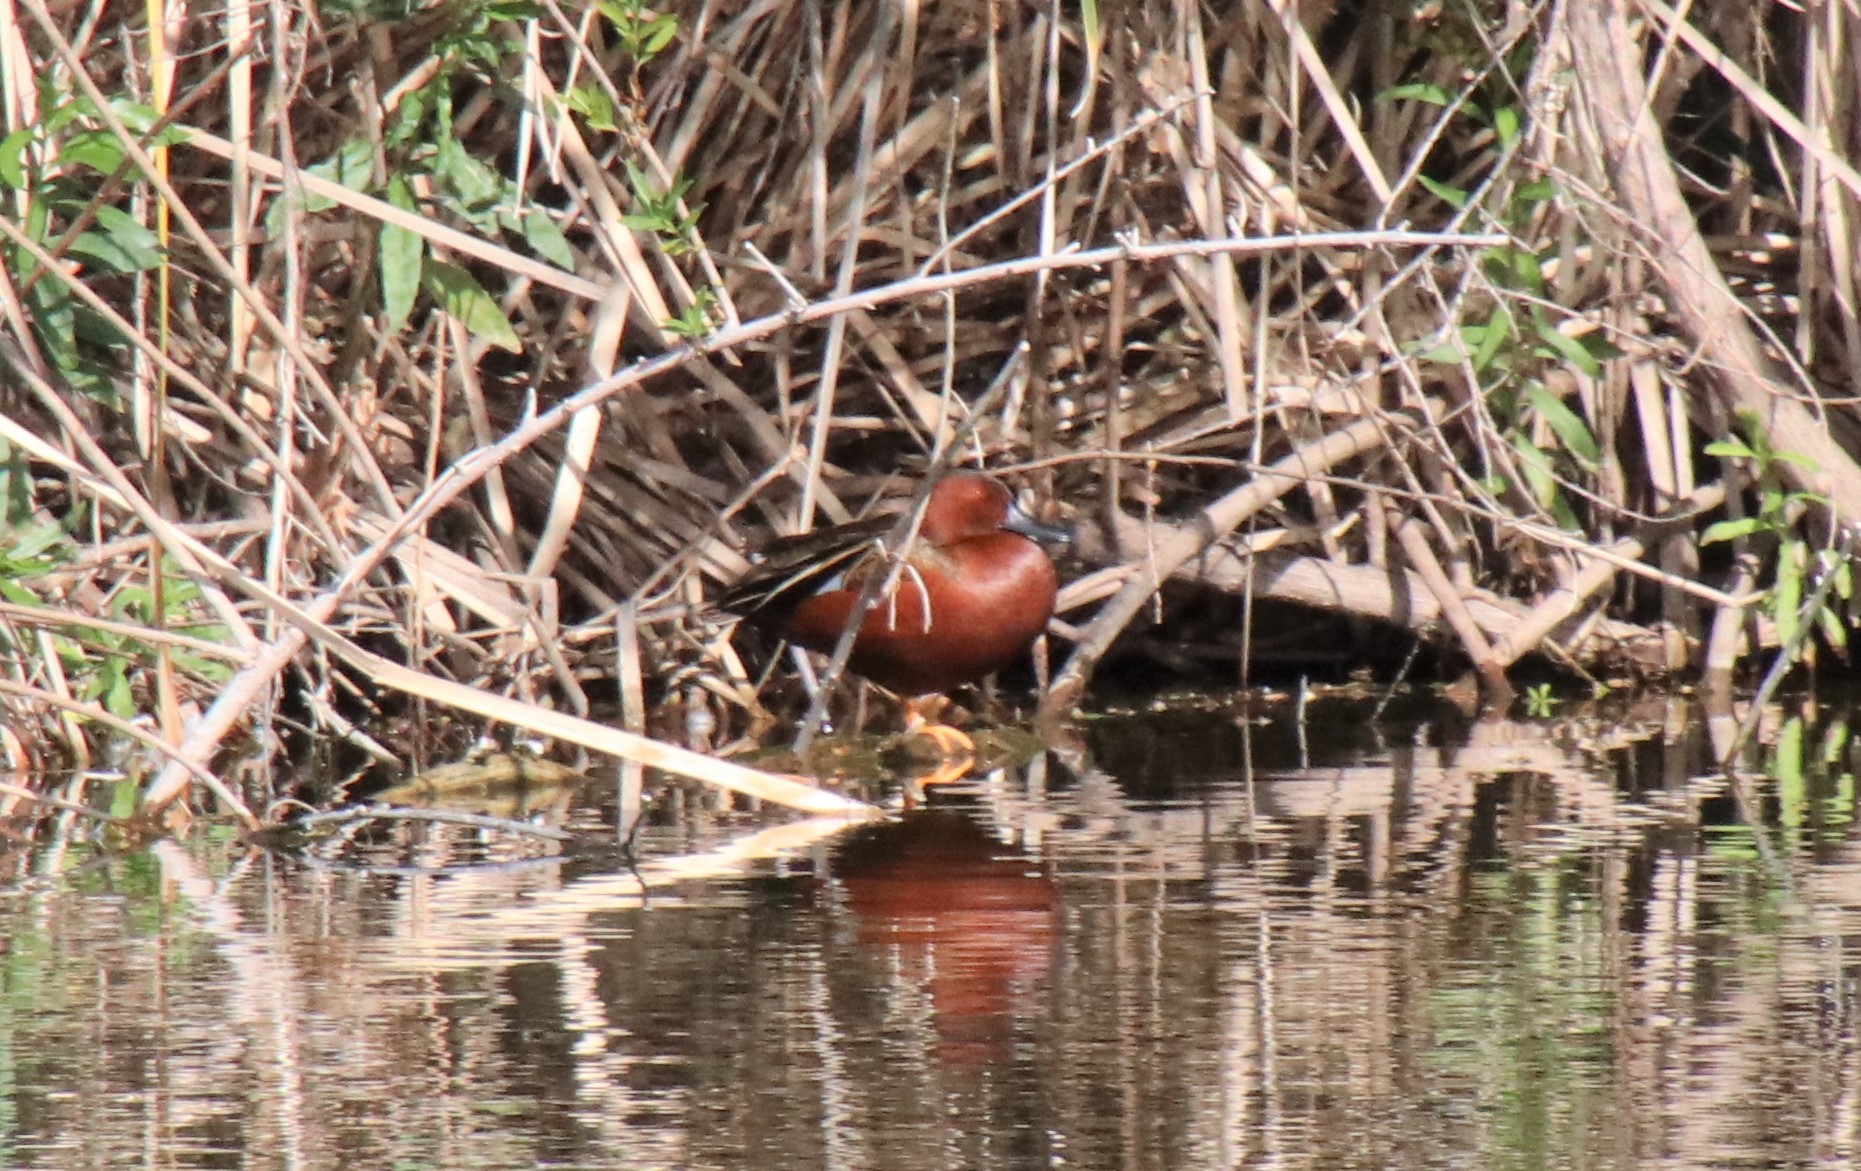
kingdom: Animalia
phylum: Chordata
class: Aves
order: Anseriformes
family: Anatidae
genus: Spatula
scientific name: Spatula cyanoptera
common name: Cinnamon teal
